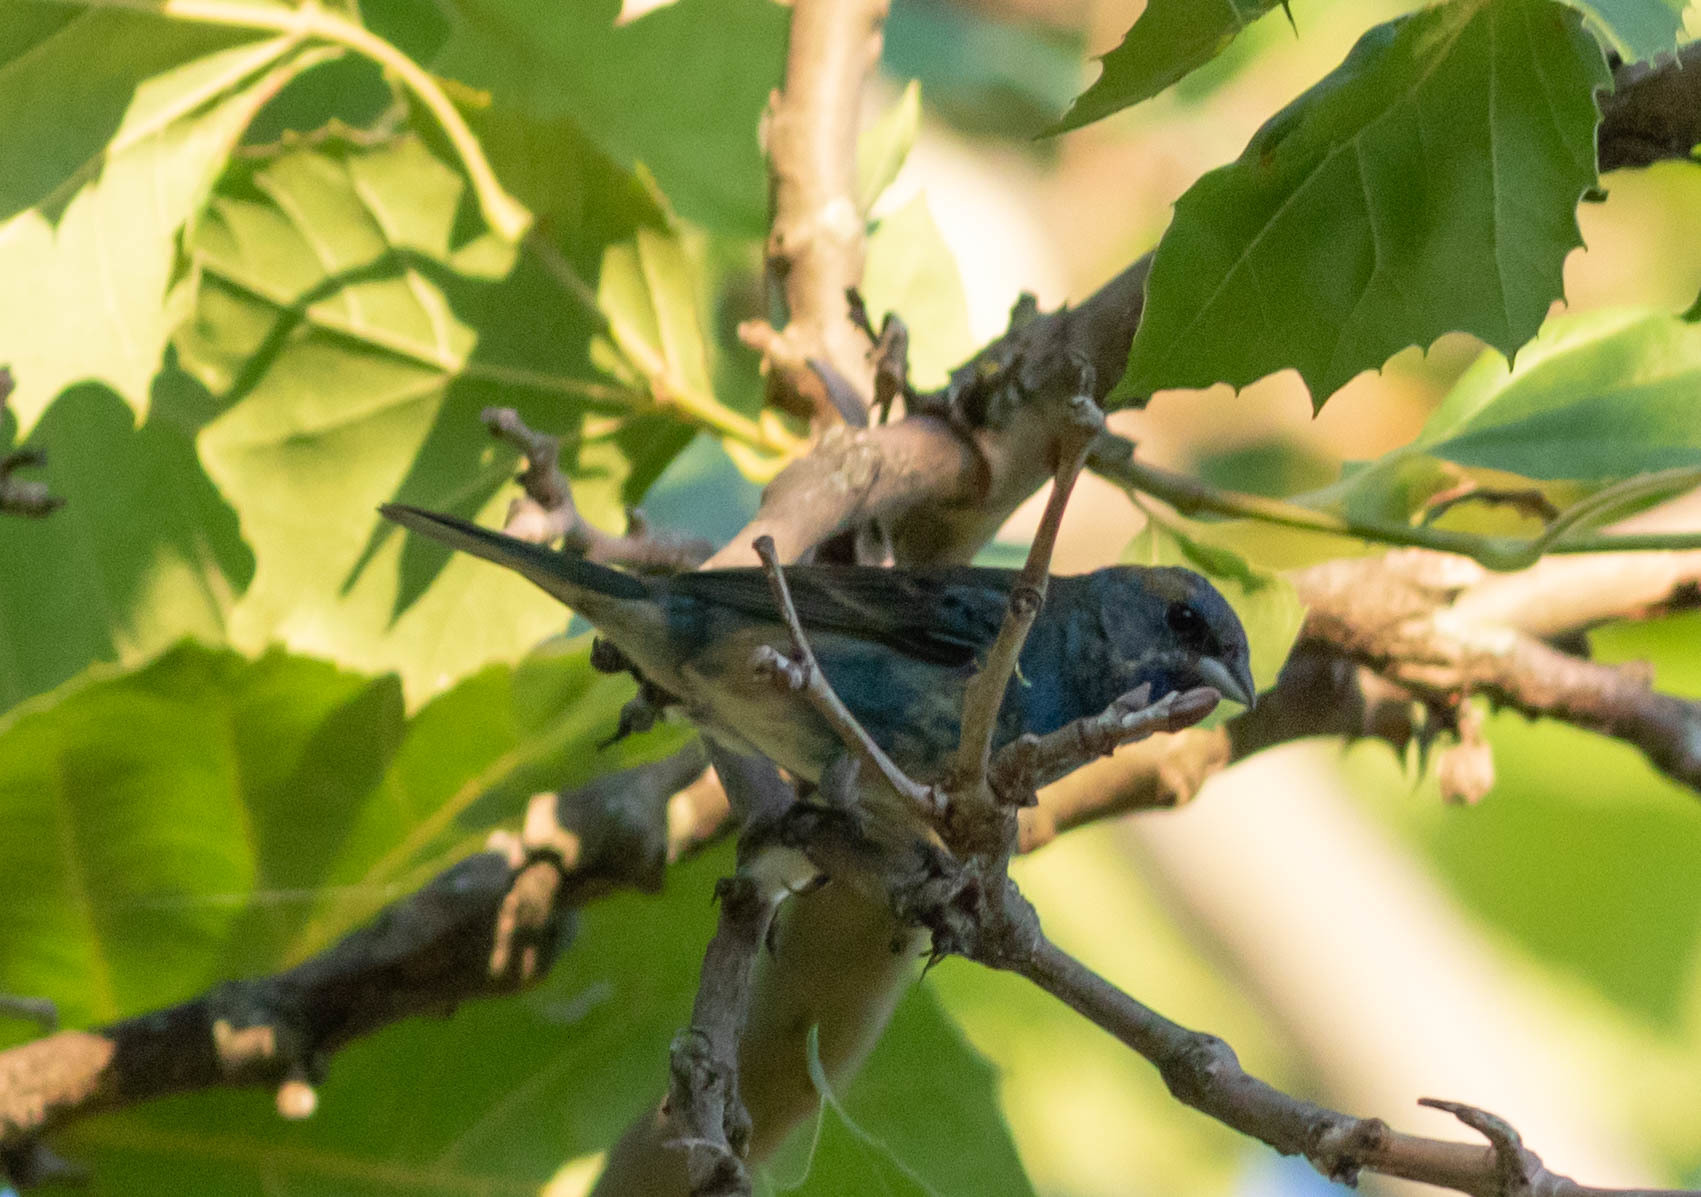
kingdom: Animalia
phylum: Chordata
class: Aves
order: Passeriformes
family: Cardinalidae
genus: Passerina
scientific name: Passerina cyanea
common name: Indigo bunting
